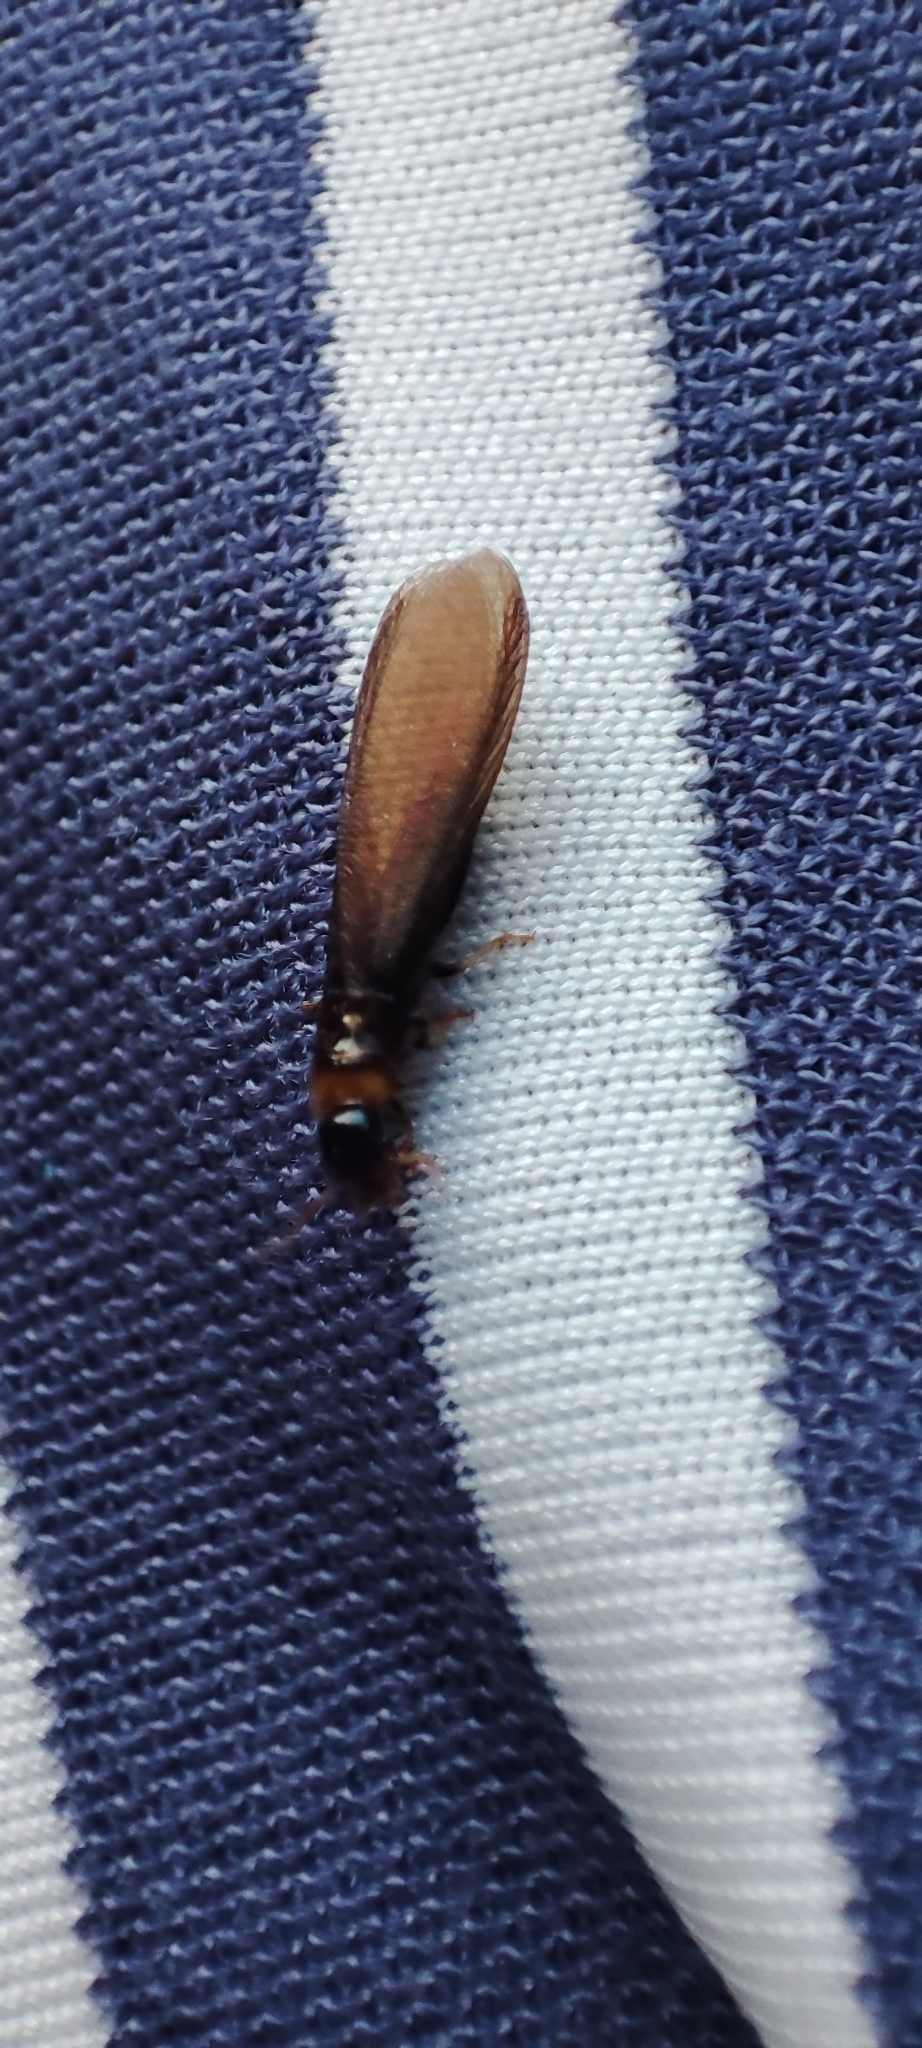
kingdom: Animalia
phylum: Arthropoda
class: Insecta
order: Blattodea
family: Kalotermitidae
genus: Kalotermes
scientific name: Kalotermes flavicollis
